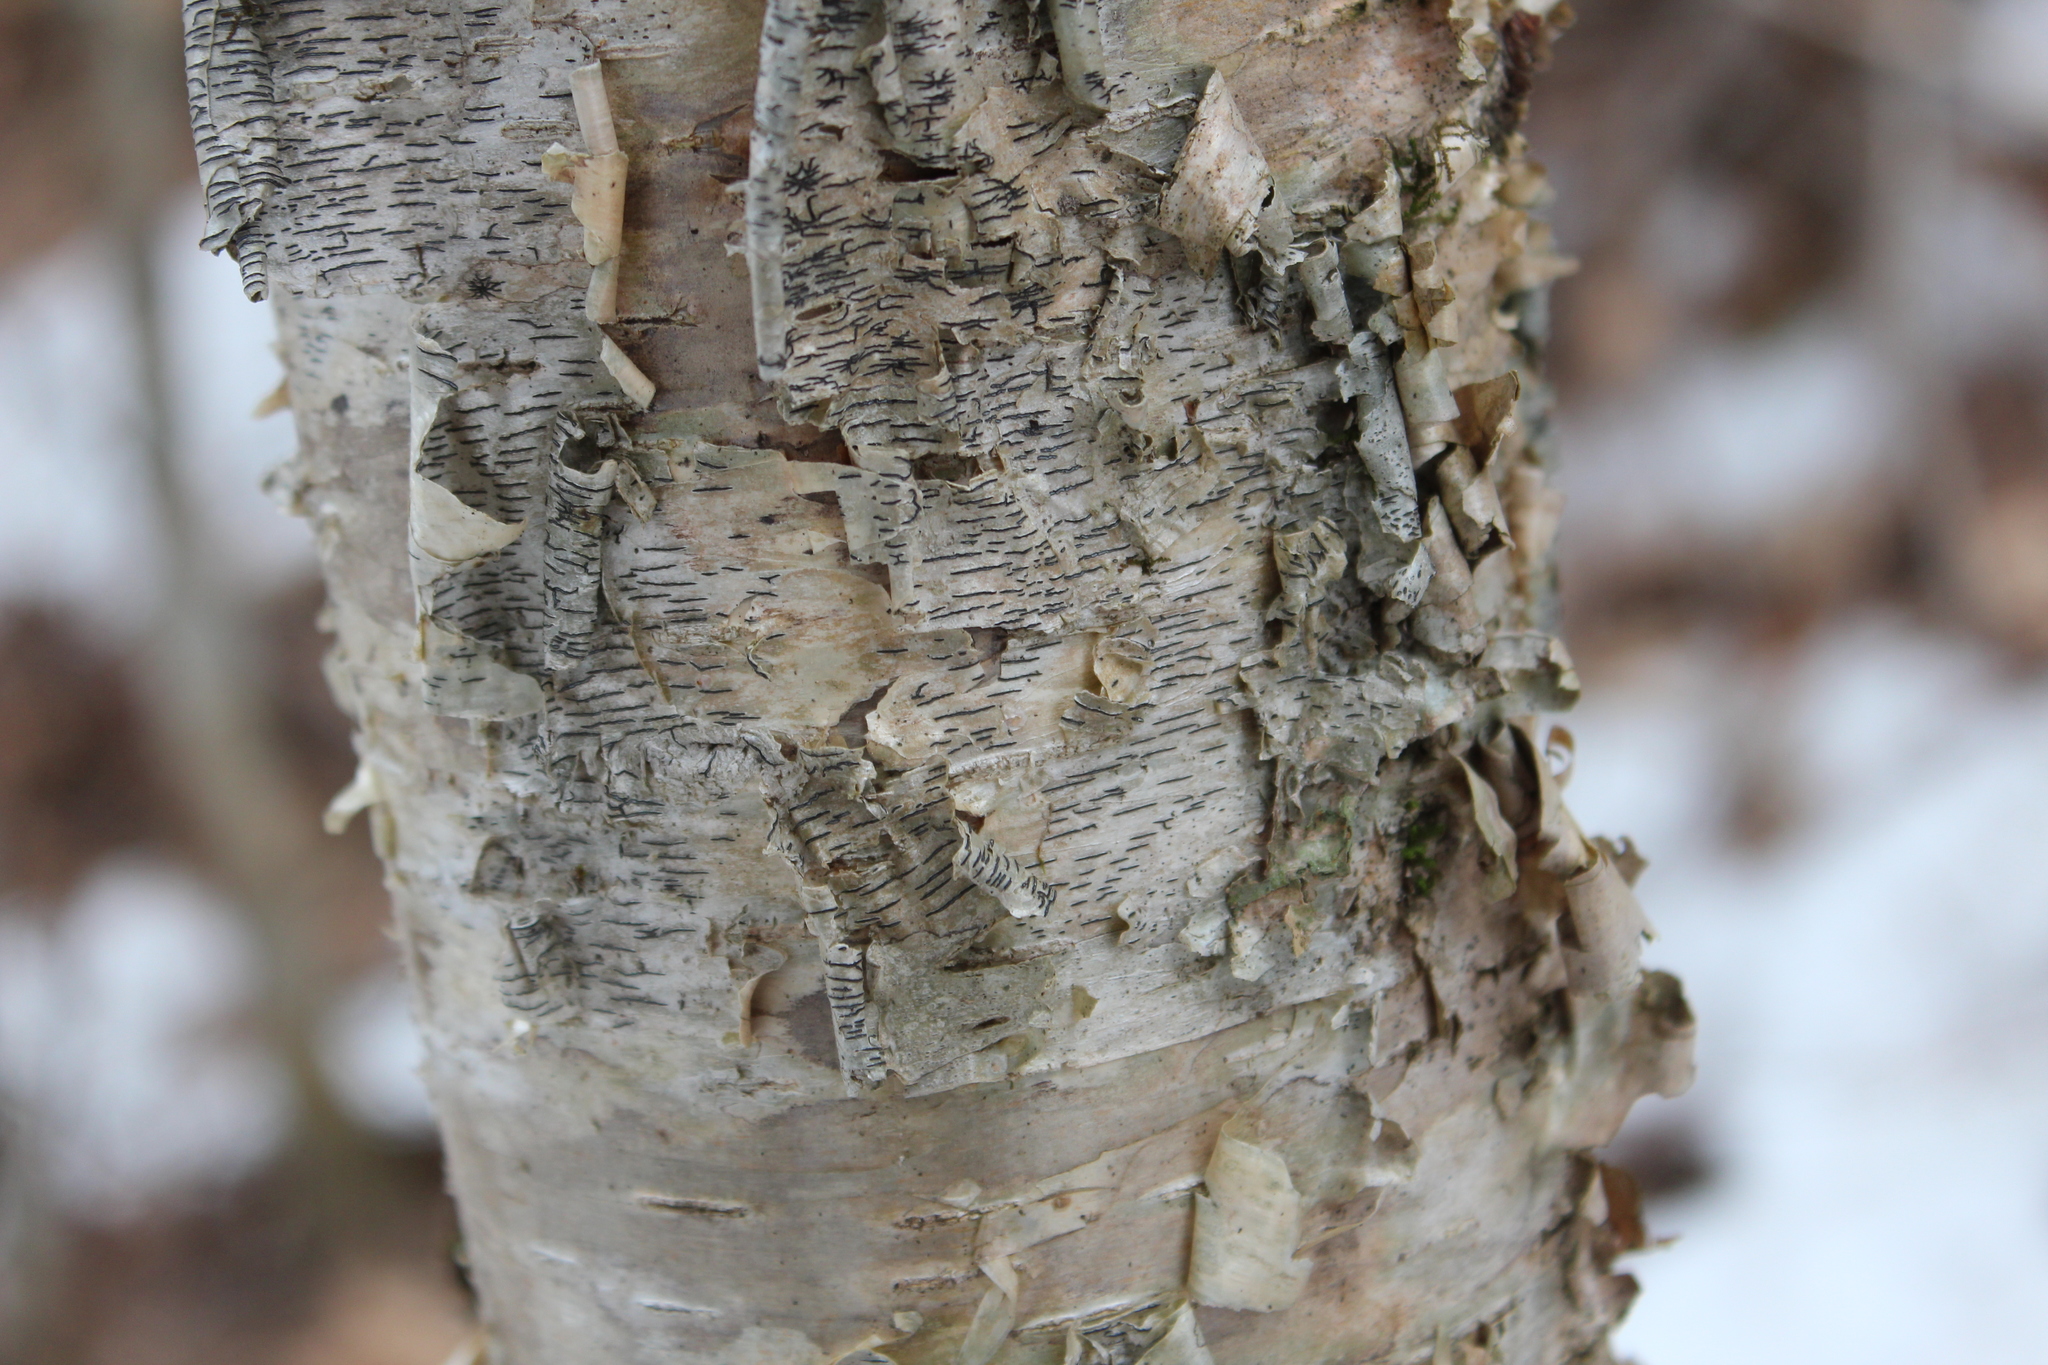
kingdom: Fungi
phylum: Ascomycota
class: Lecanoromycetes
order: Ostropales
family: Graphidaceae
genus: Graphis
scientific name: Graphis scripta
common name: Script lichen
